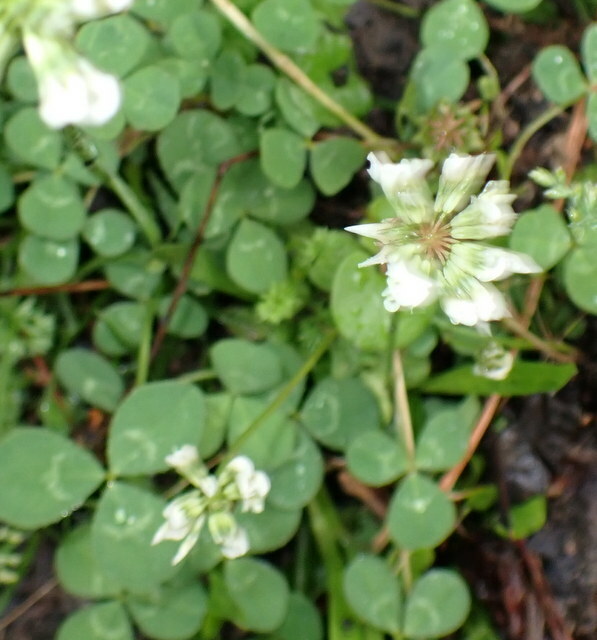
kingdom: Plantae
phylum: Tracheophyta
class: Magnoliopsida
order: Fabales
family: Fabaceae
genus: Trifolium
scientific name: Trifolium repens
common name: White clover
